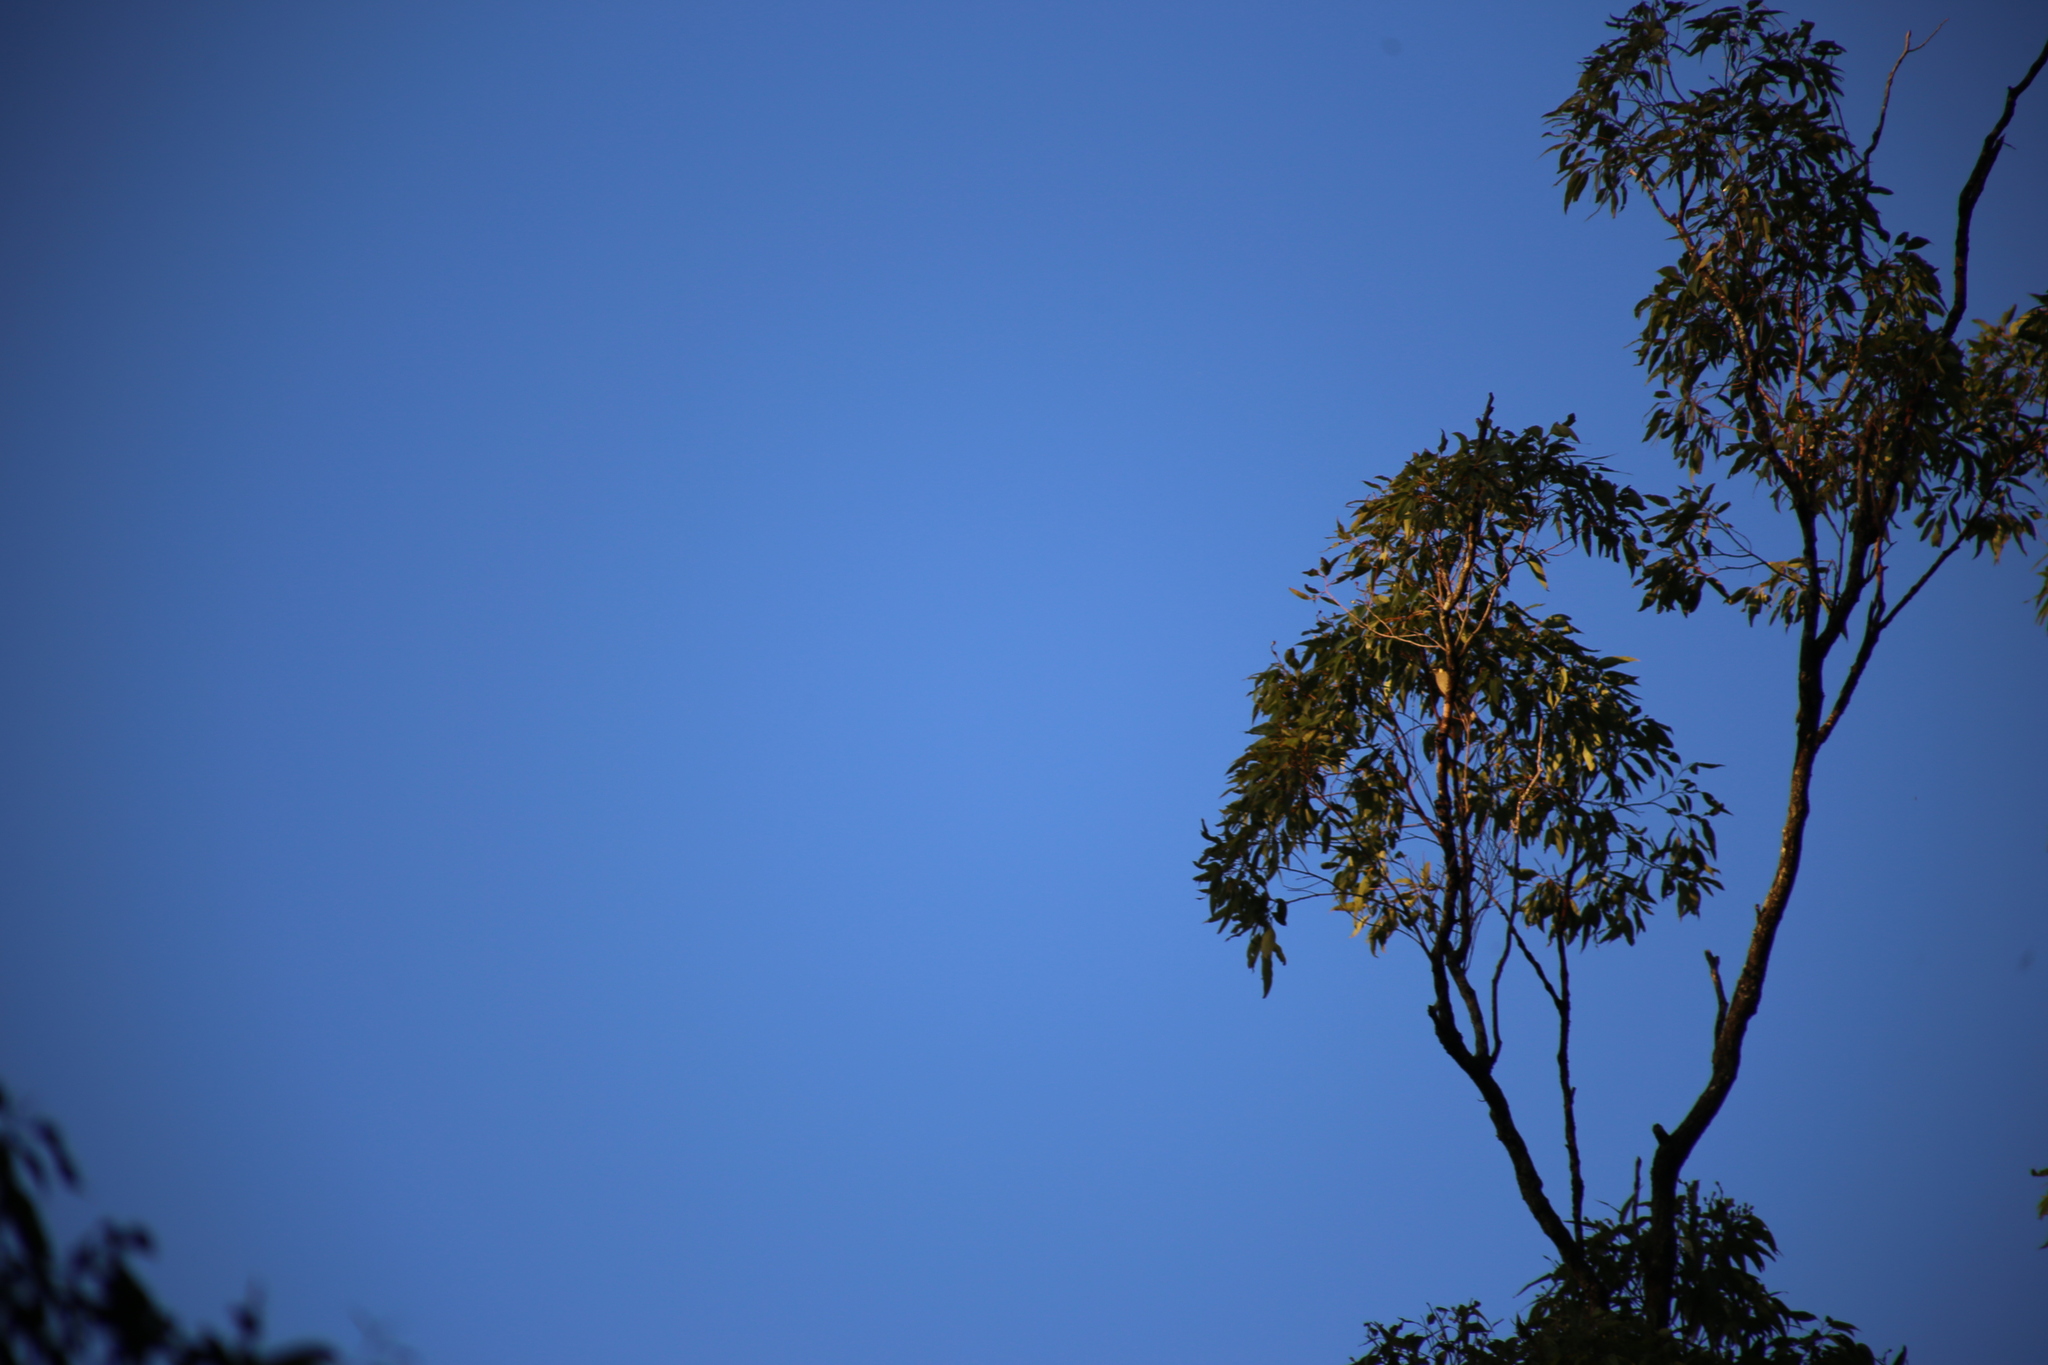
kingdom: Animalia
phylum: Chordata
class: Aves
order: Passeriformes
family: Meliphagidae
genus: Meliphaga
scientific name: Meliphaga lewinii
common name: Lewin's honeyeater
